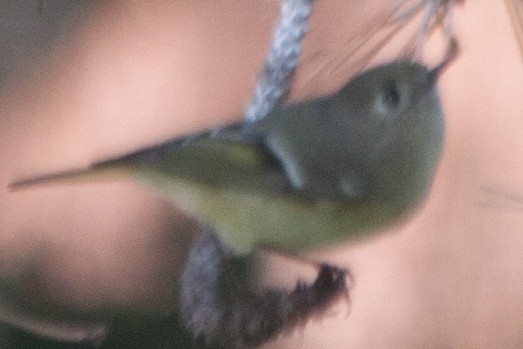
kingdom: Animalia
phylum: Chordata
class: Aves
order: Passeriformes
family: Regulidae
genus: Regulus
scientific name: Regulus calendula
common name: Ruby-crowned kinglet
